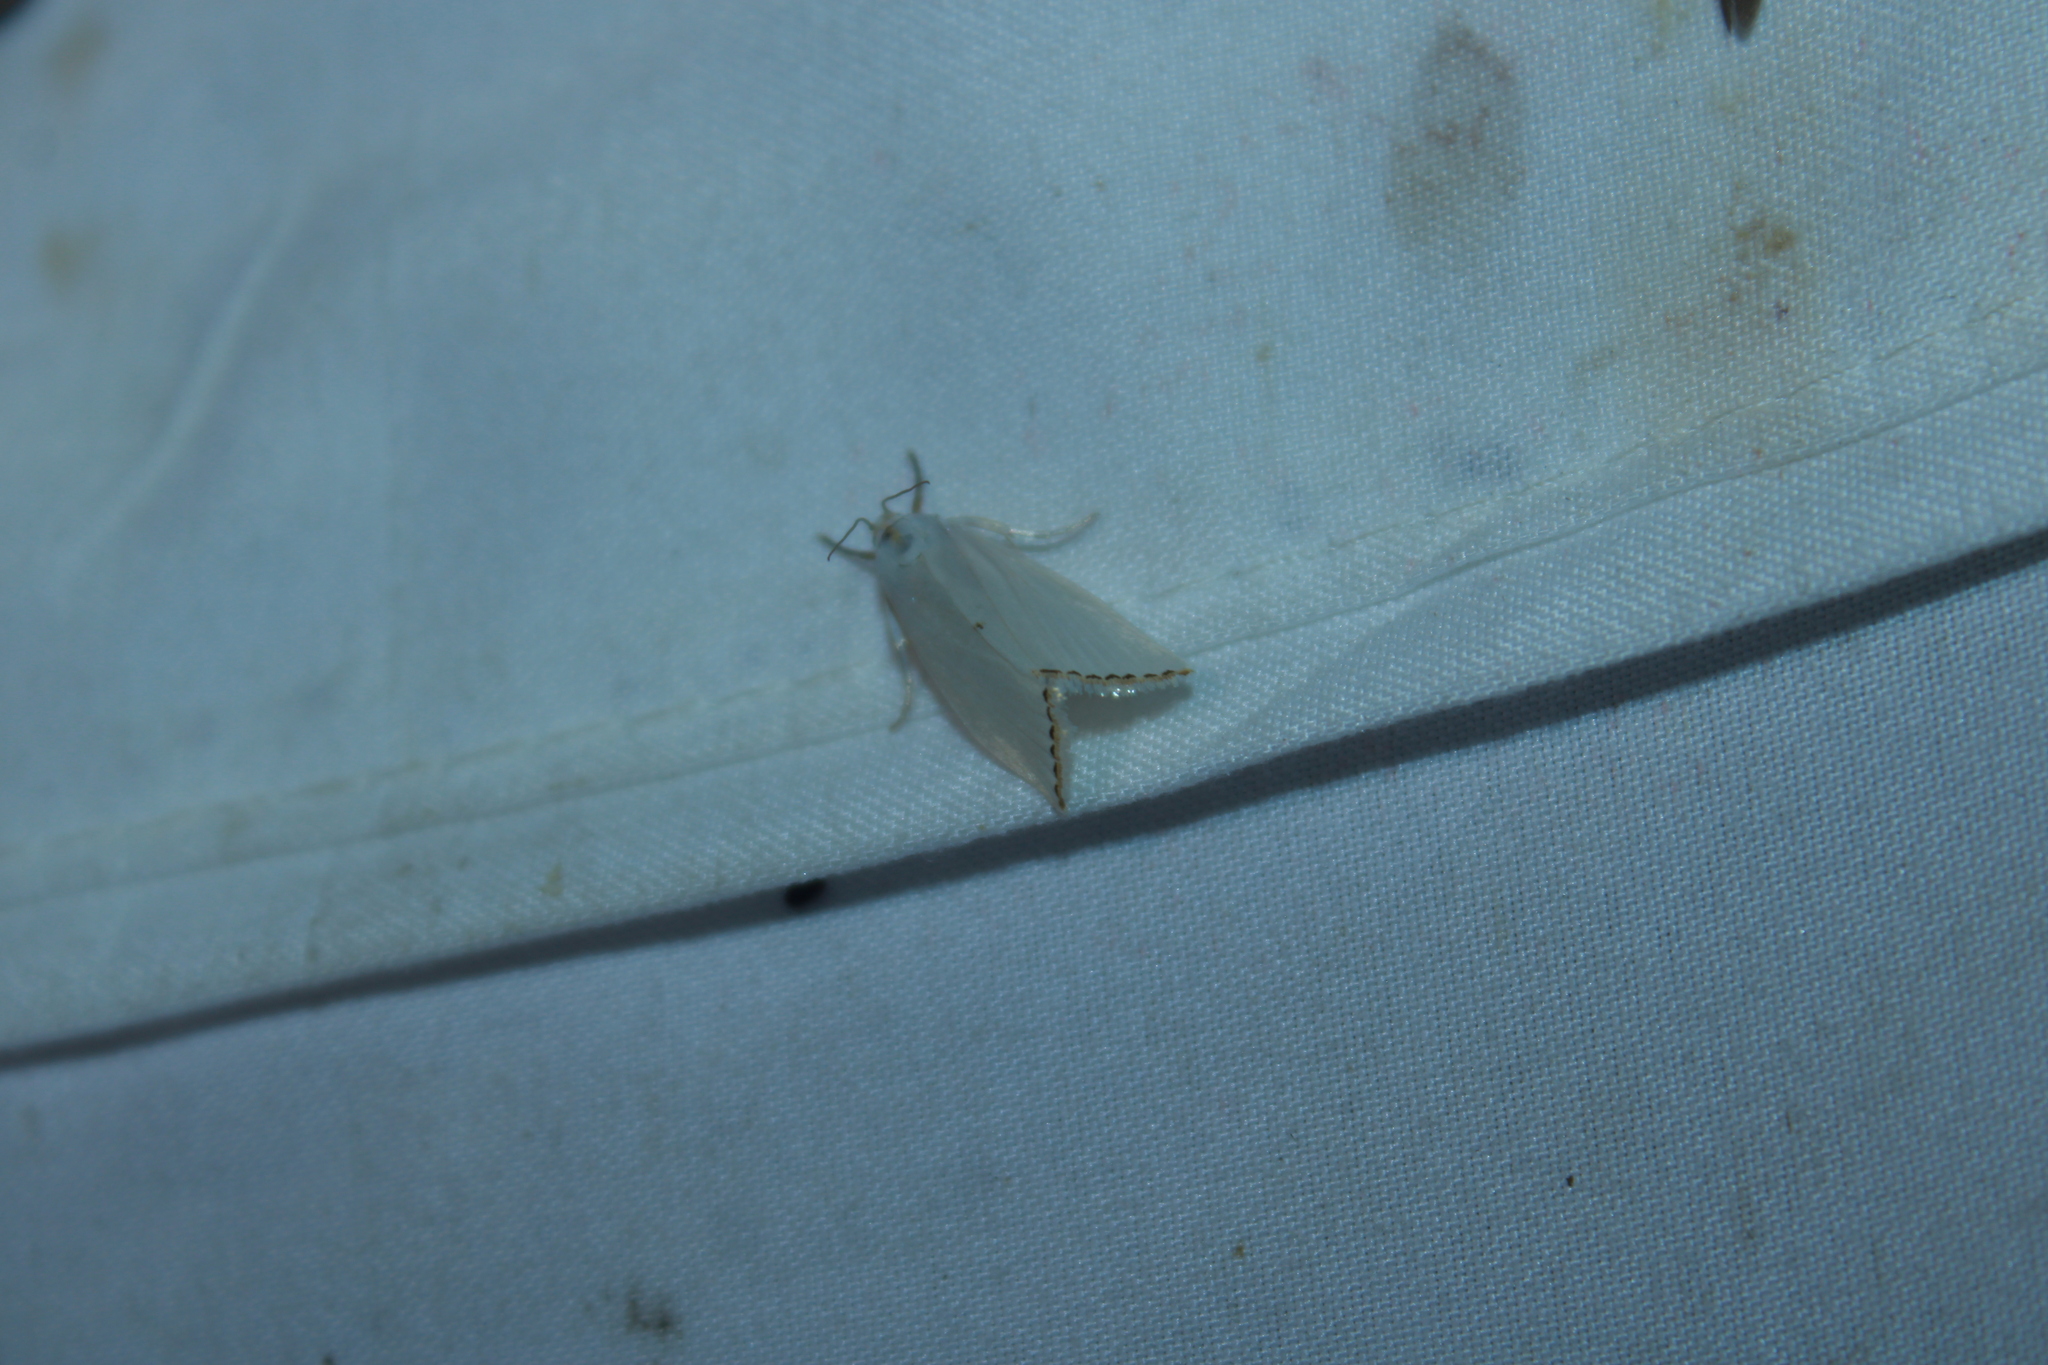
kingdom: Animalia
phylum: Arthropoda
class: Insecta
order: Lepidoptera
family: Crambidae
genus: Argyria
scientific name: Argyria nivalis
